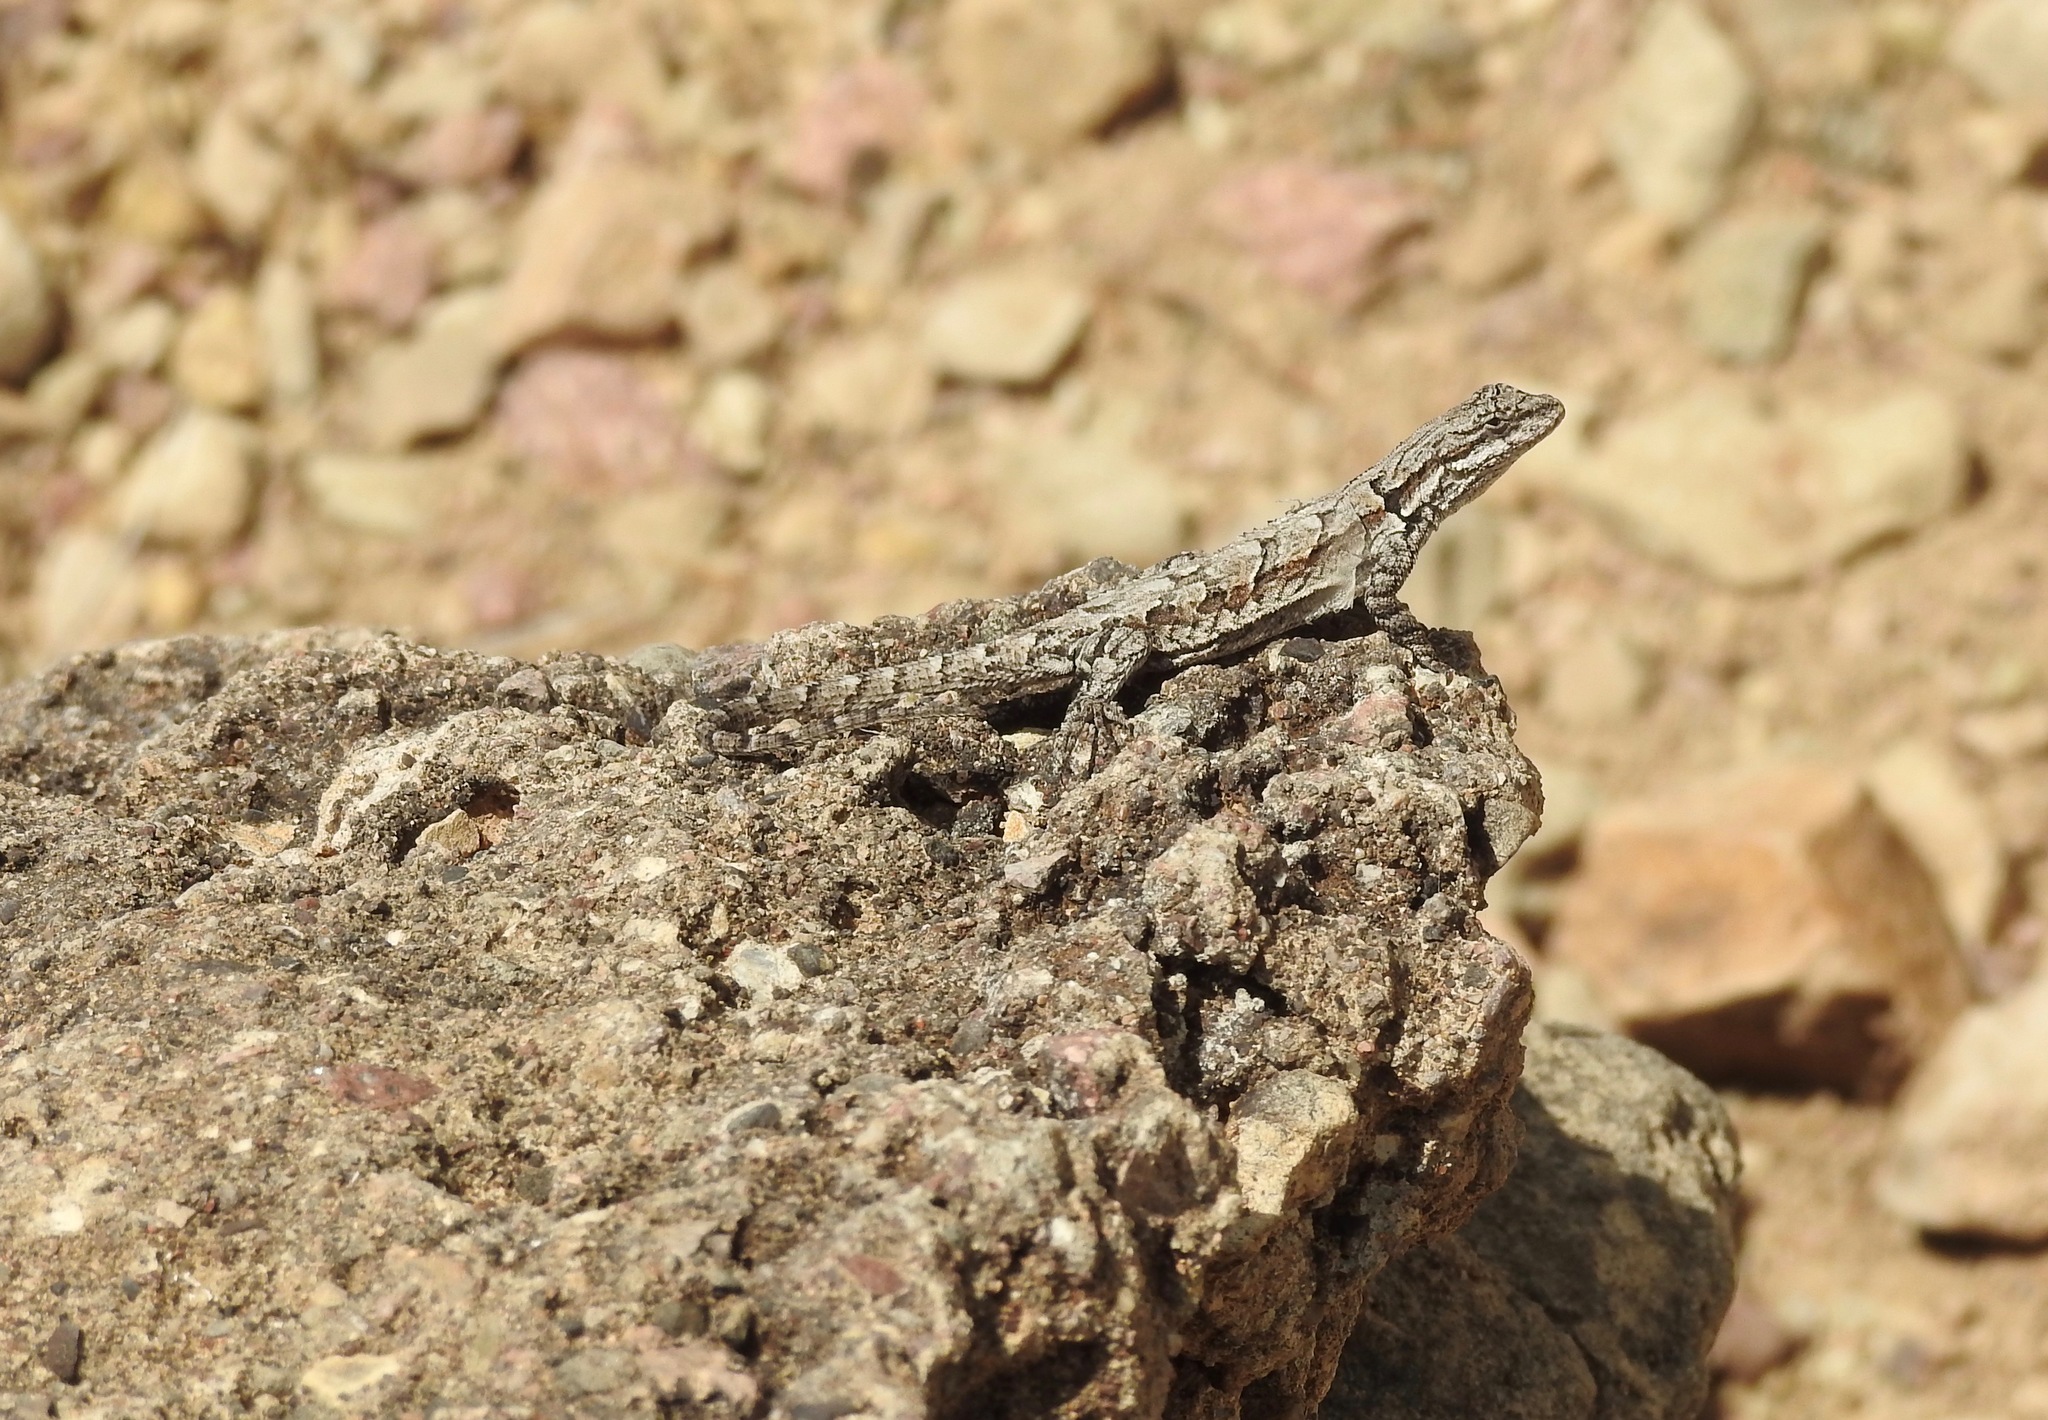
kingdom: Animalia
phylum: Chordata
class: Squamata
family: Phrynosomatidae
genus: Urosaurus
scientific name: Urosaurus ornatus
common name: Ornate tree lizard
